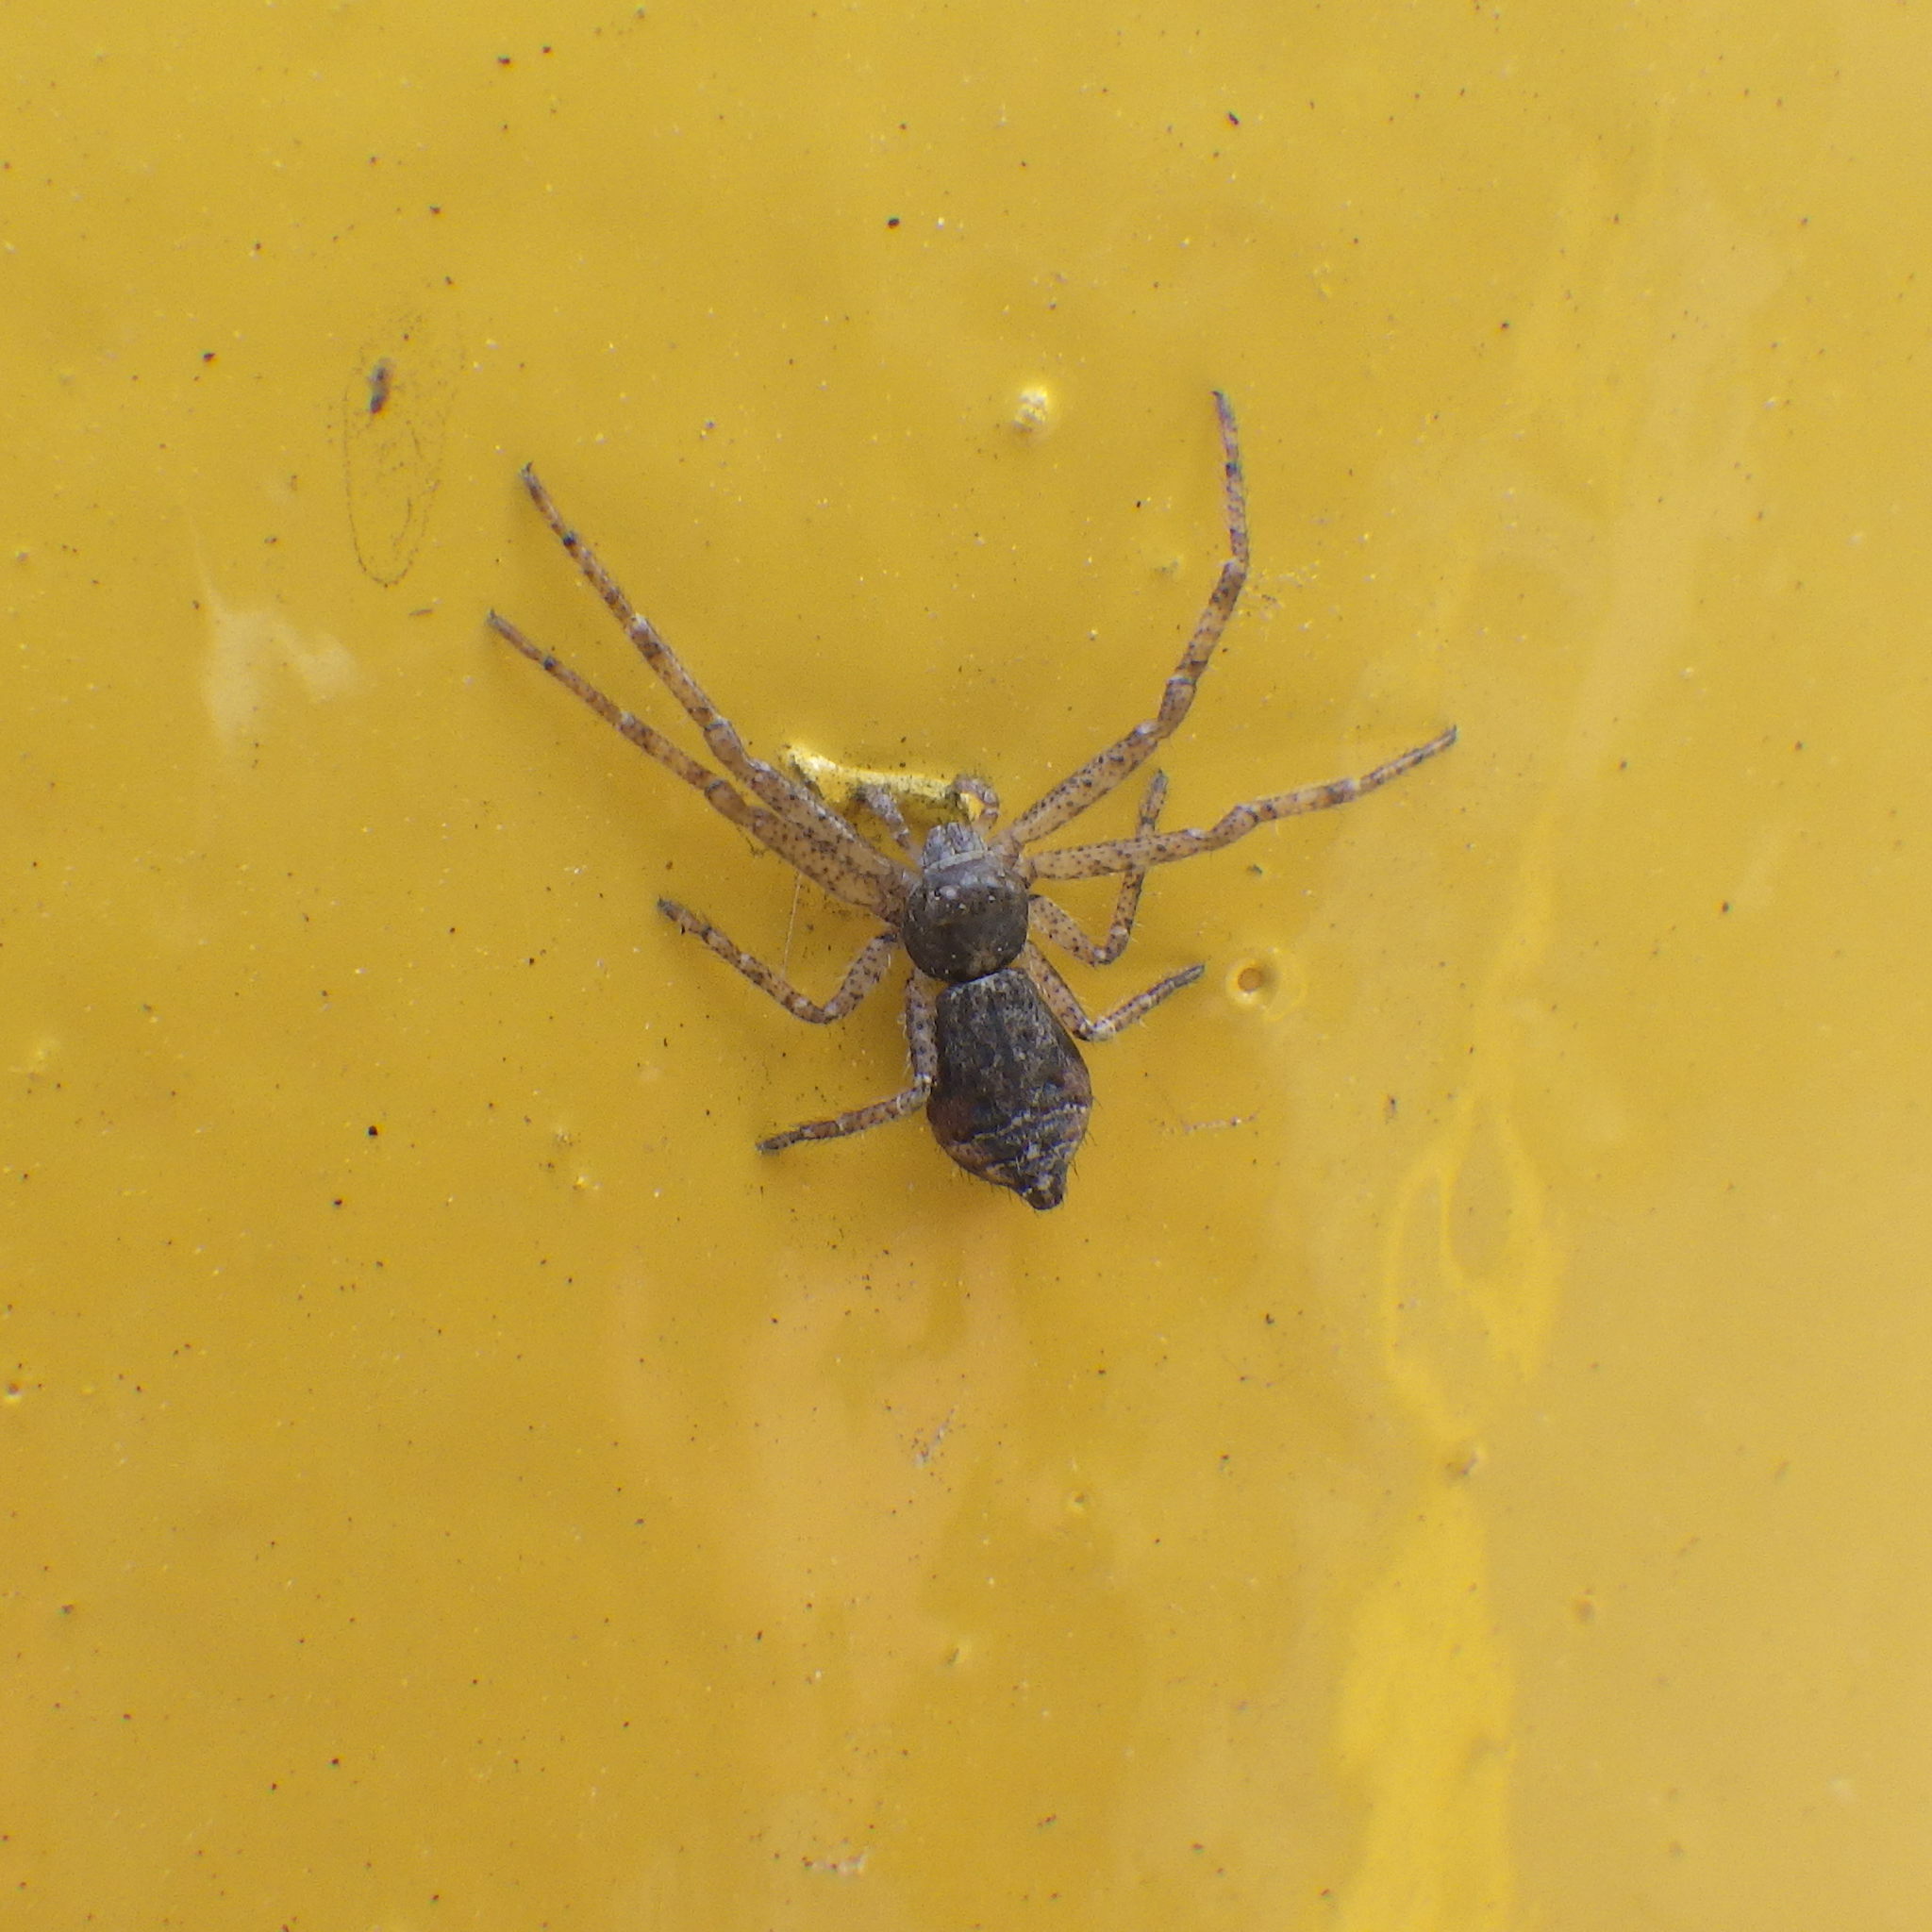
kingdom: Animalia
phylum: Arthropoda
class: Arachnida
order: Araneae
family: Thomisidae
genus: Tmarus
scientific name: Tmarus angulatus
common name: Tuberculated crab spider
